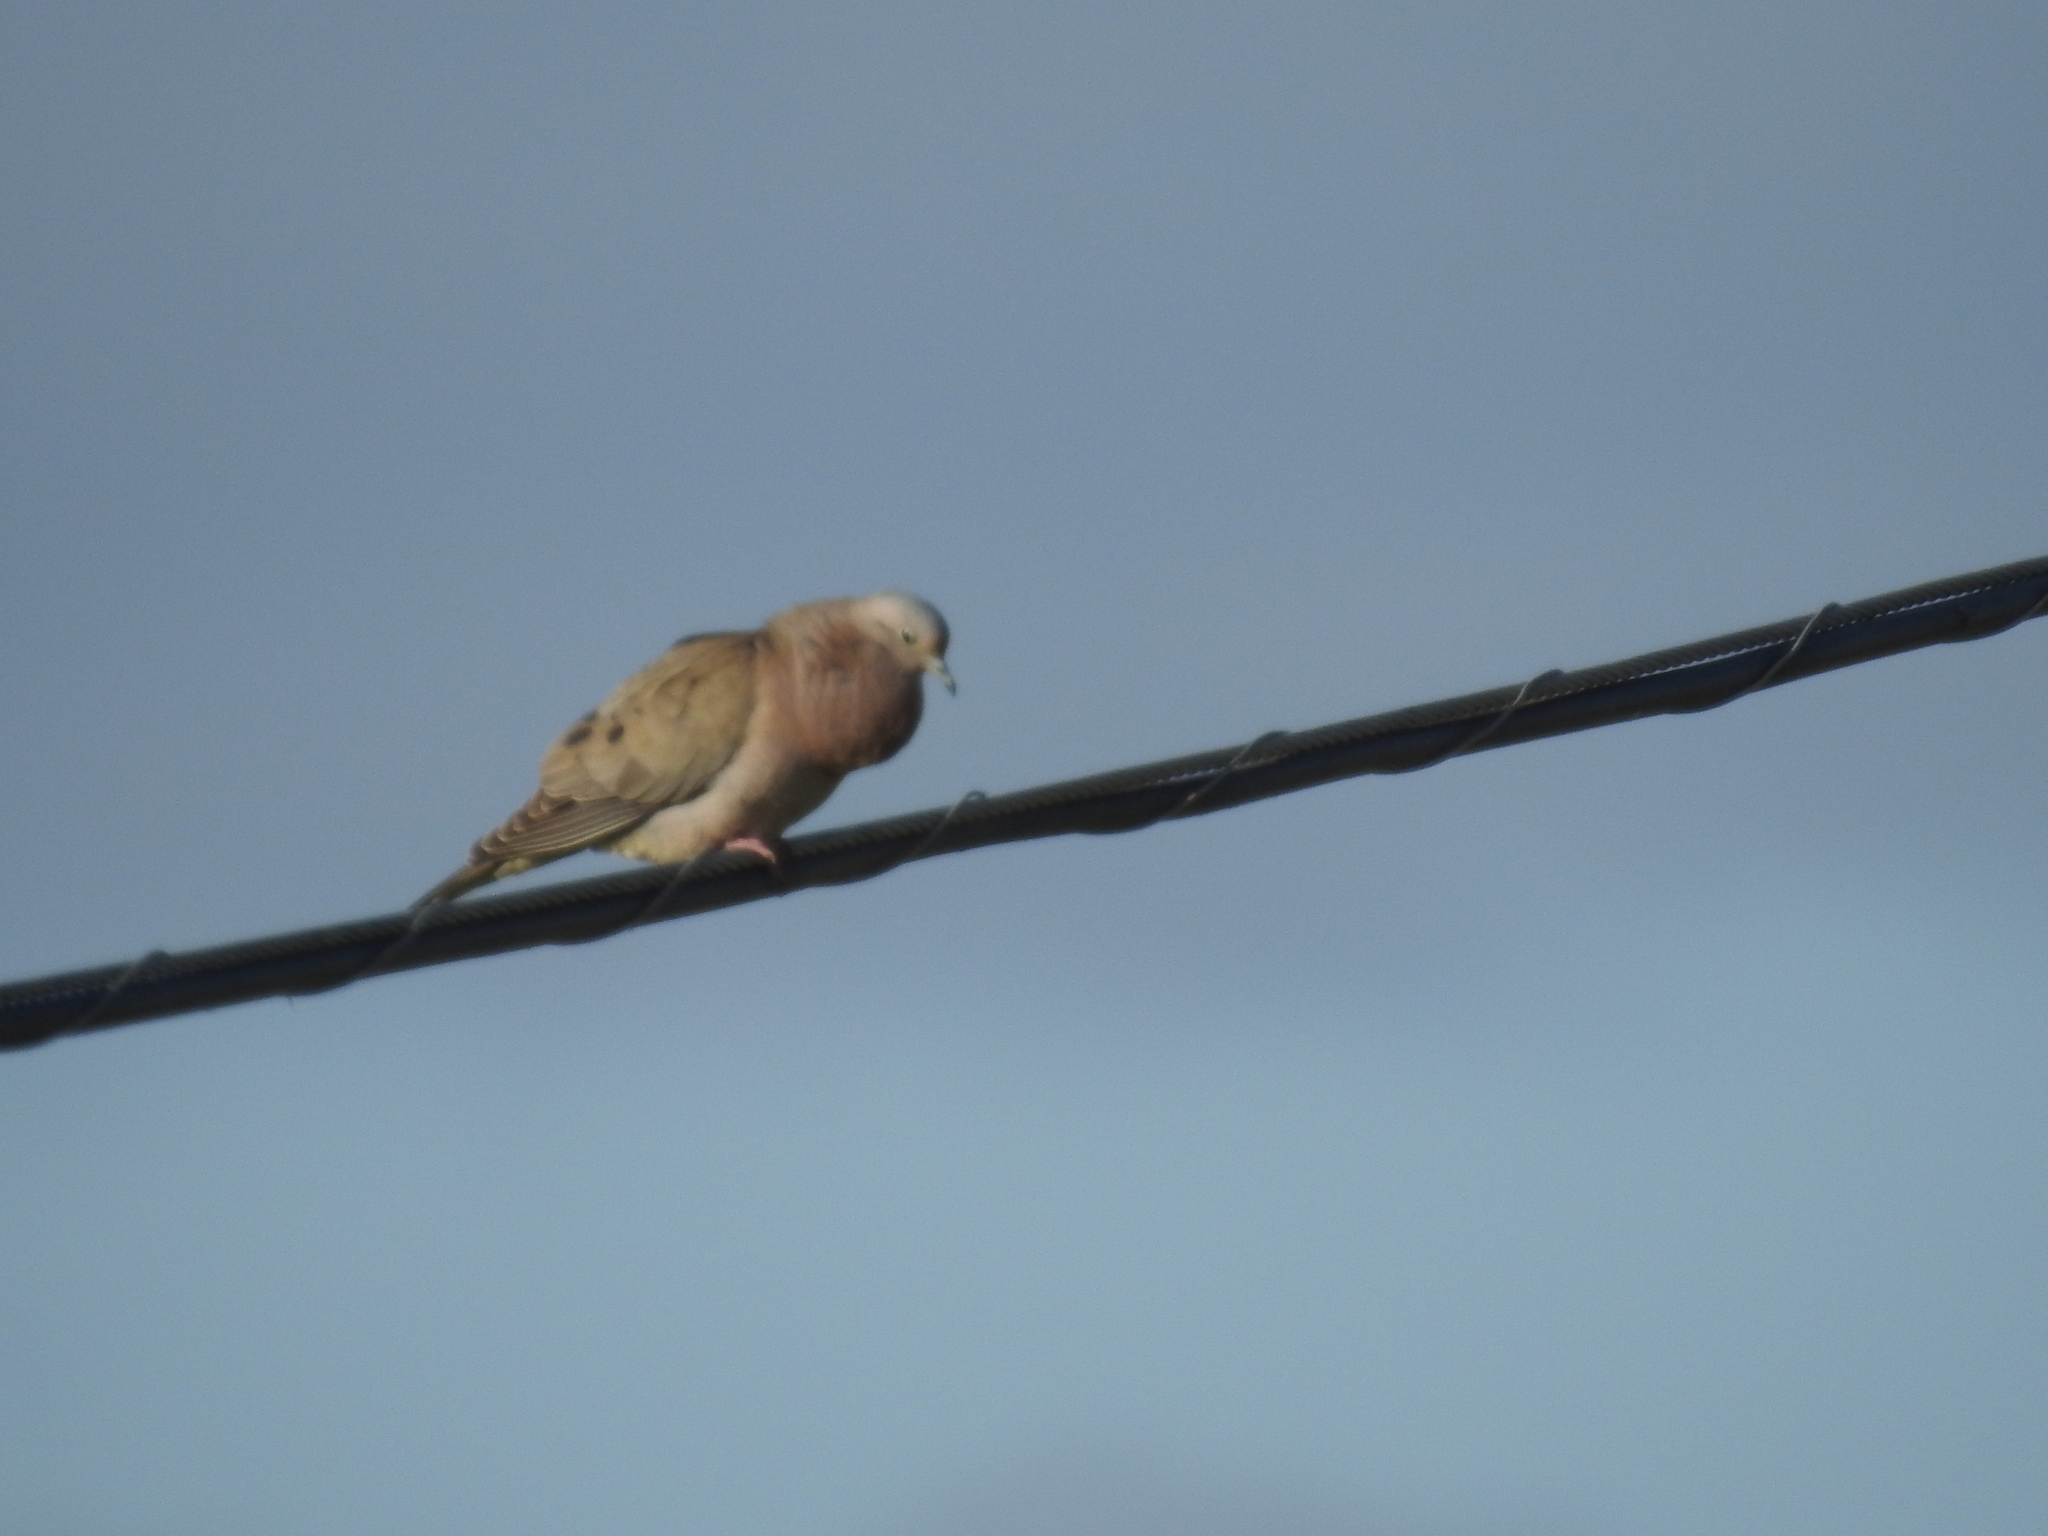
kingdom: Animalia
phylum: Chordata
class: Aves
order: Columbiformes
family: Columbidae
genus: Zenaida
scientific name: Zenaida auriculata
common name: Eared dove
